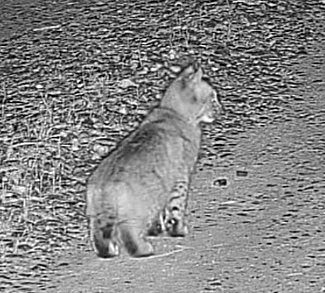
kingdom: Animalia
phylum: Chordata
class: Mammalia
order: Carnivora
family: Felidae
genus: Lynx
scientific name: Lynx rufus
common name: Bobcat
